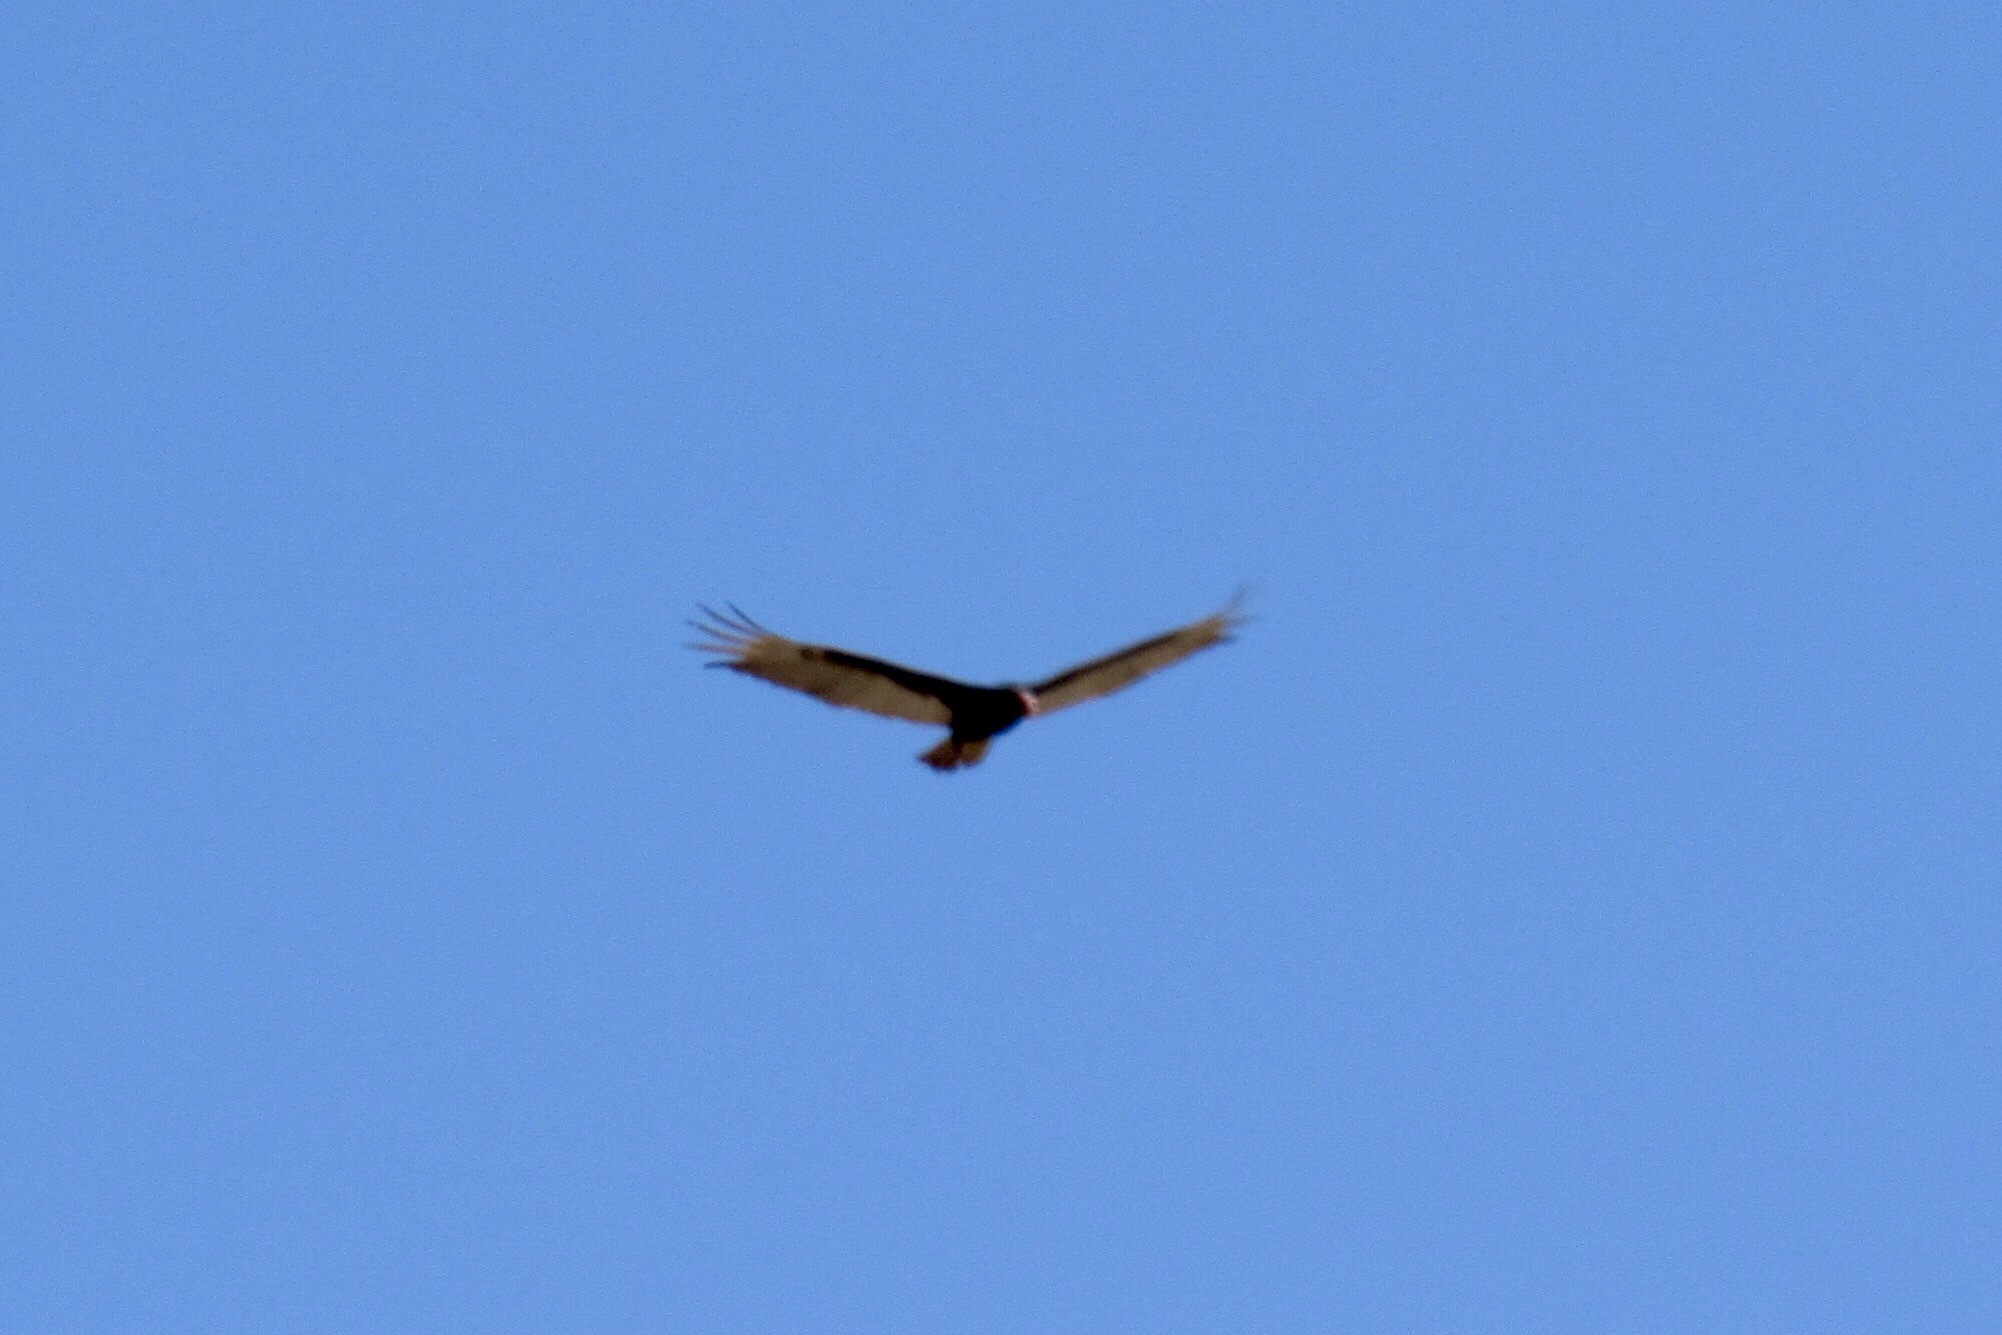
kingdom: Animalia
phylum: Chordata
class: Aves
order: Accipitriformes
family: Cathartidae
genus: Cathartes
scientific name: Cathartes aura
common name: Turkey vulture
